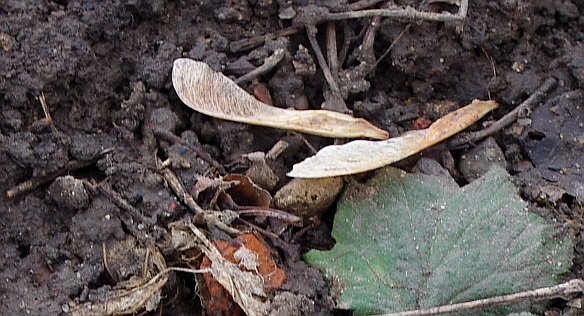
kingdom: Plantae
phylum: Tracheophyta
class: Magnoliopsida
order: Sapindales
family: Sapindaceae
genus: Acer
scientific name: Acer negundo
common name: Ashleaf maple
